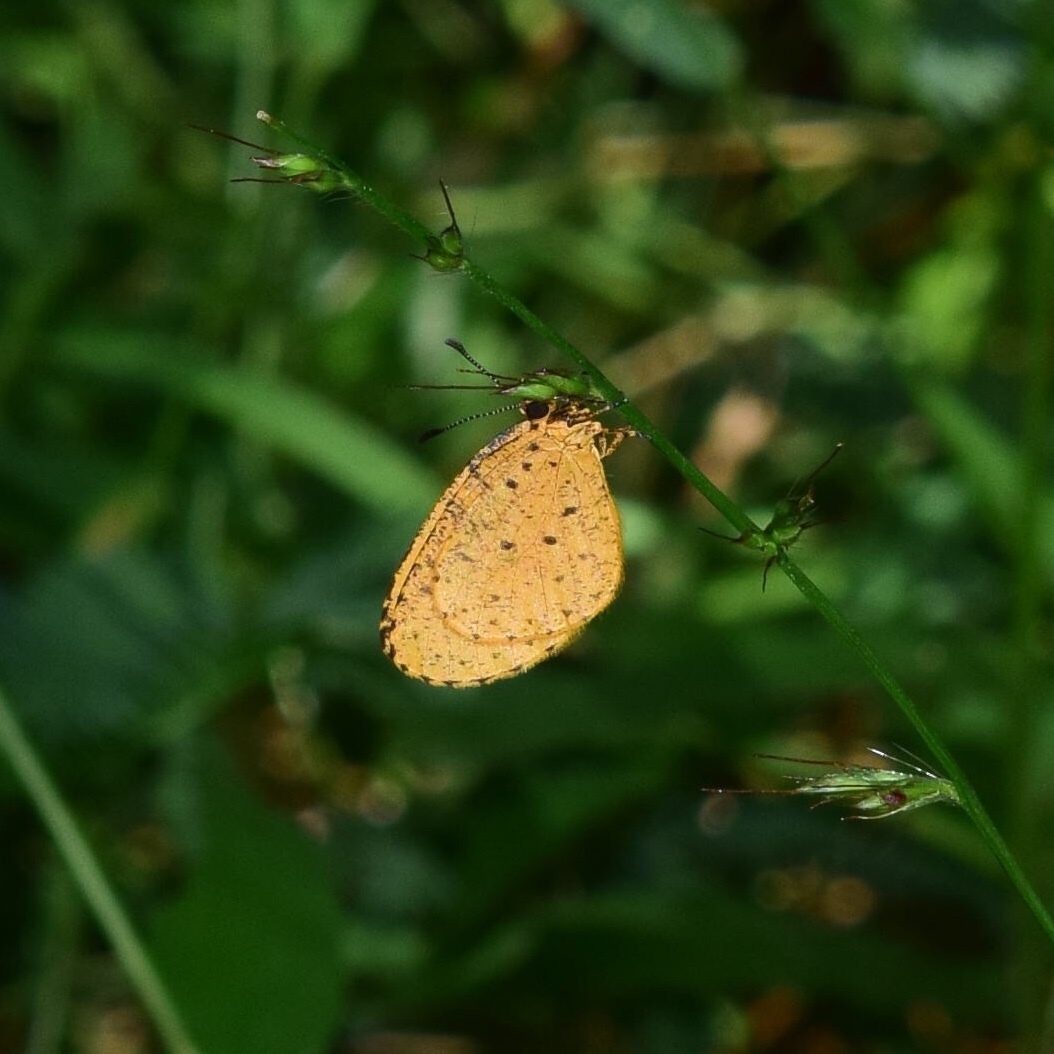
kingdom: Animalia
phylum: Arthropoda
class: Insecta
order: Lepidoptera
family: Lycaenidae
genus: Pentila
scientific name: Pentila tropicalis
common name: Spotted buff
